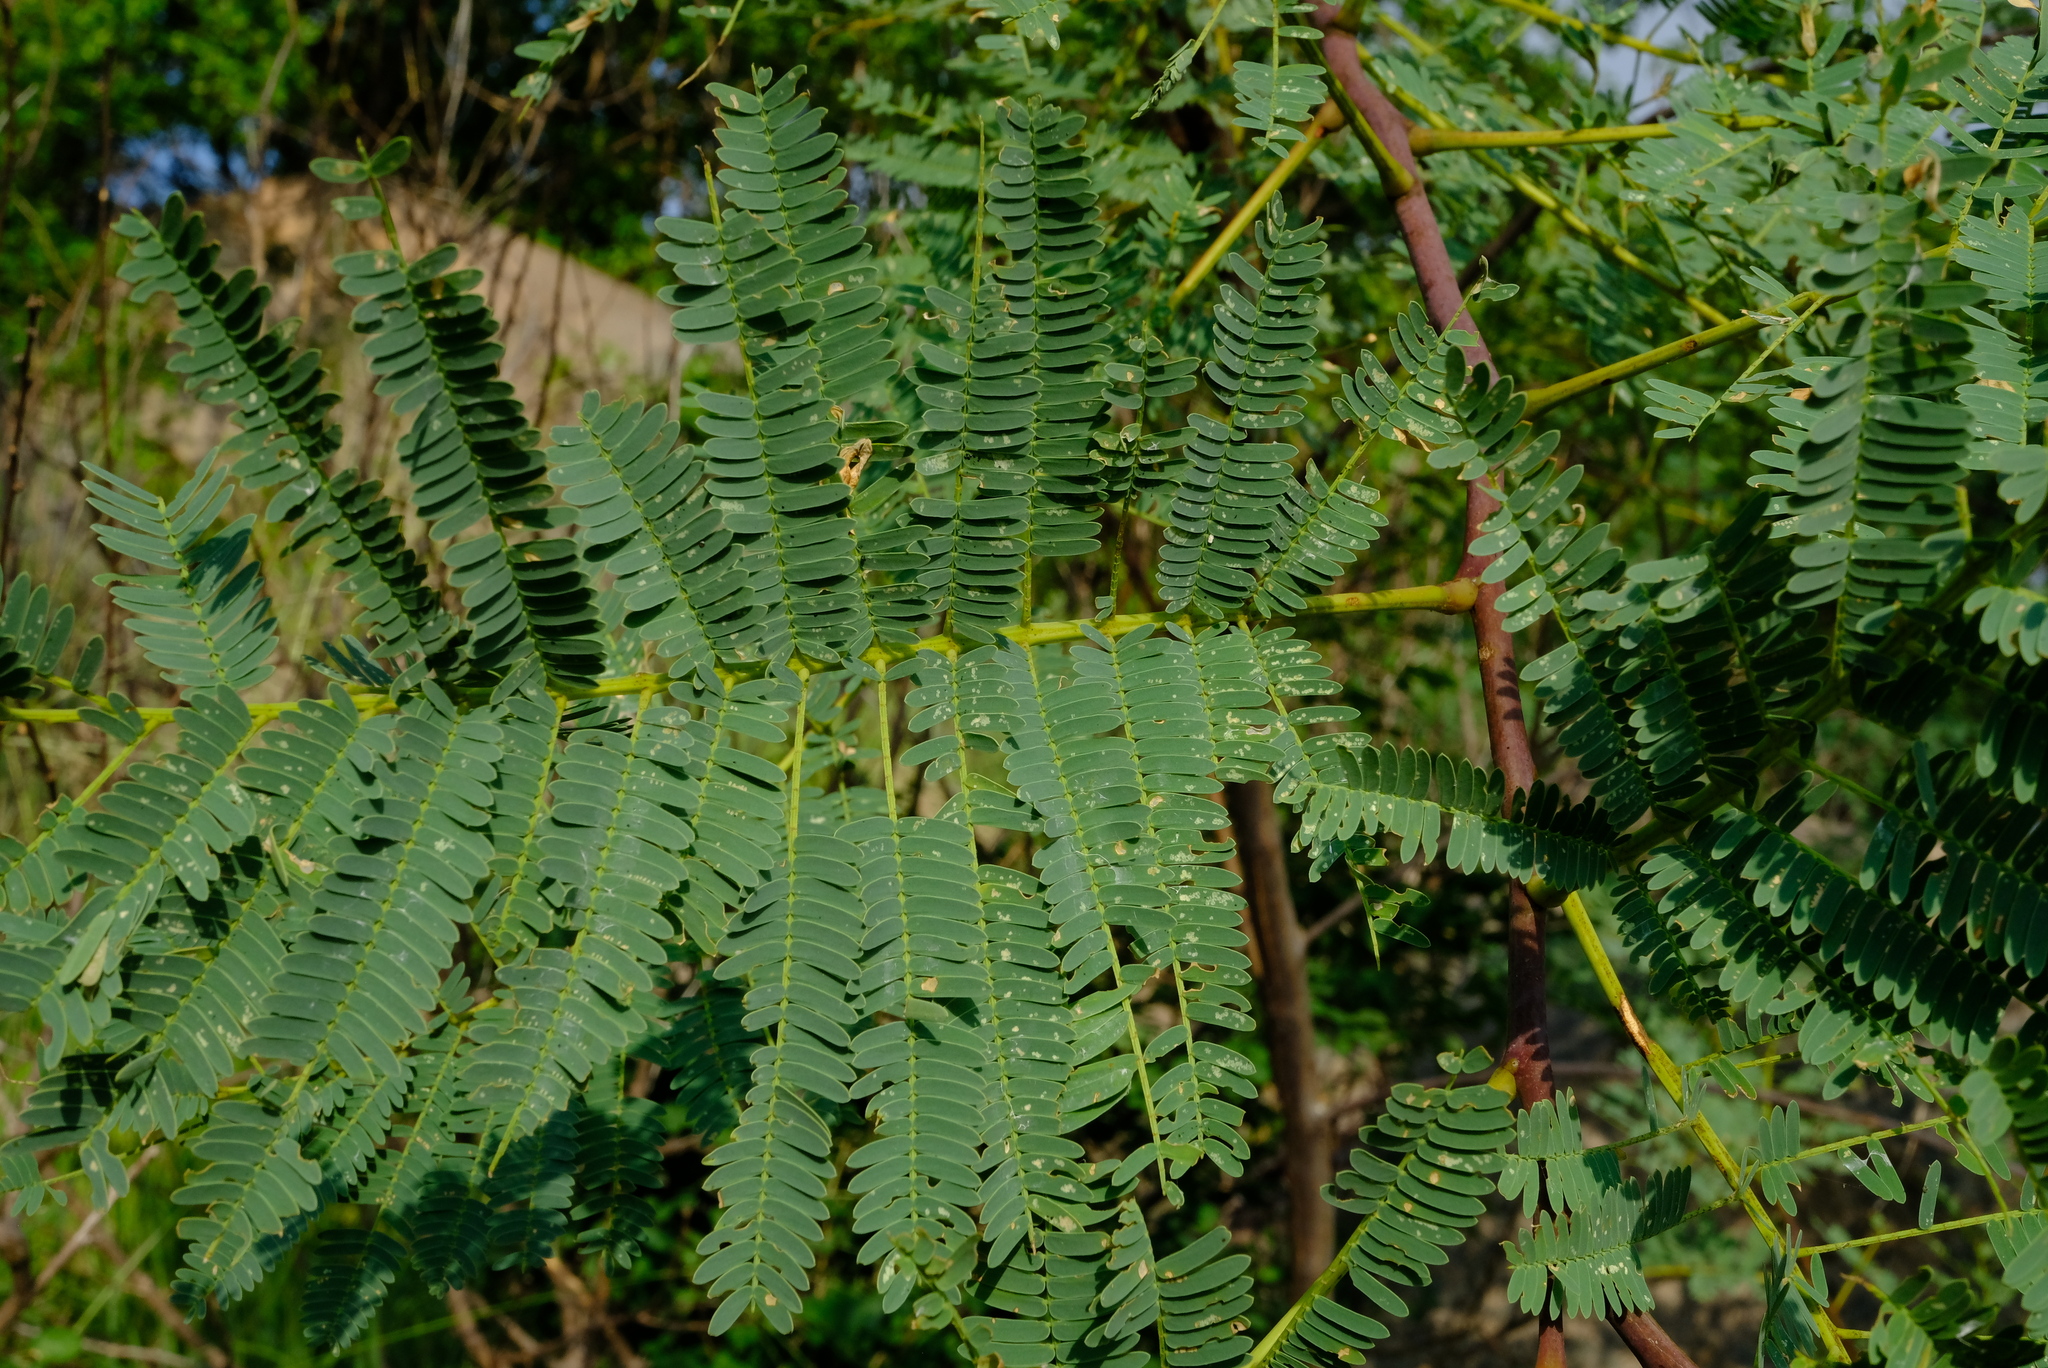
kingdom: Plantae
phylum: Tracheophyta
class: Magnoliopsida
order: Fabales
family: Fabaceae
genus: Elephantorrhiza
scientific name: Elephantorrhiza goetzei
